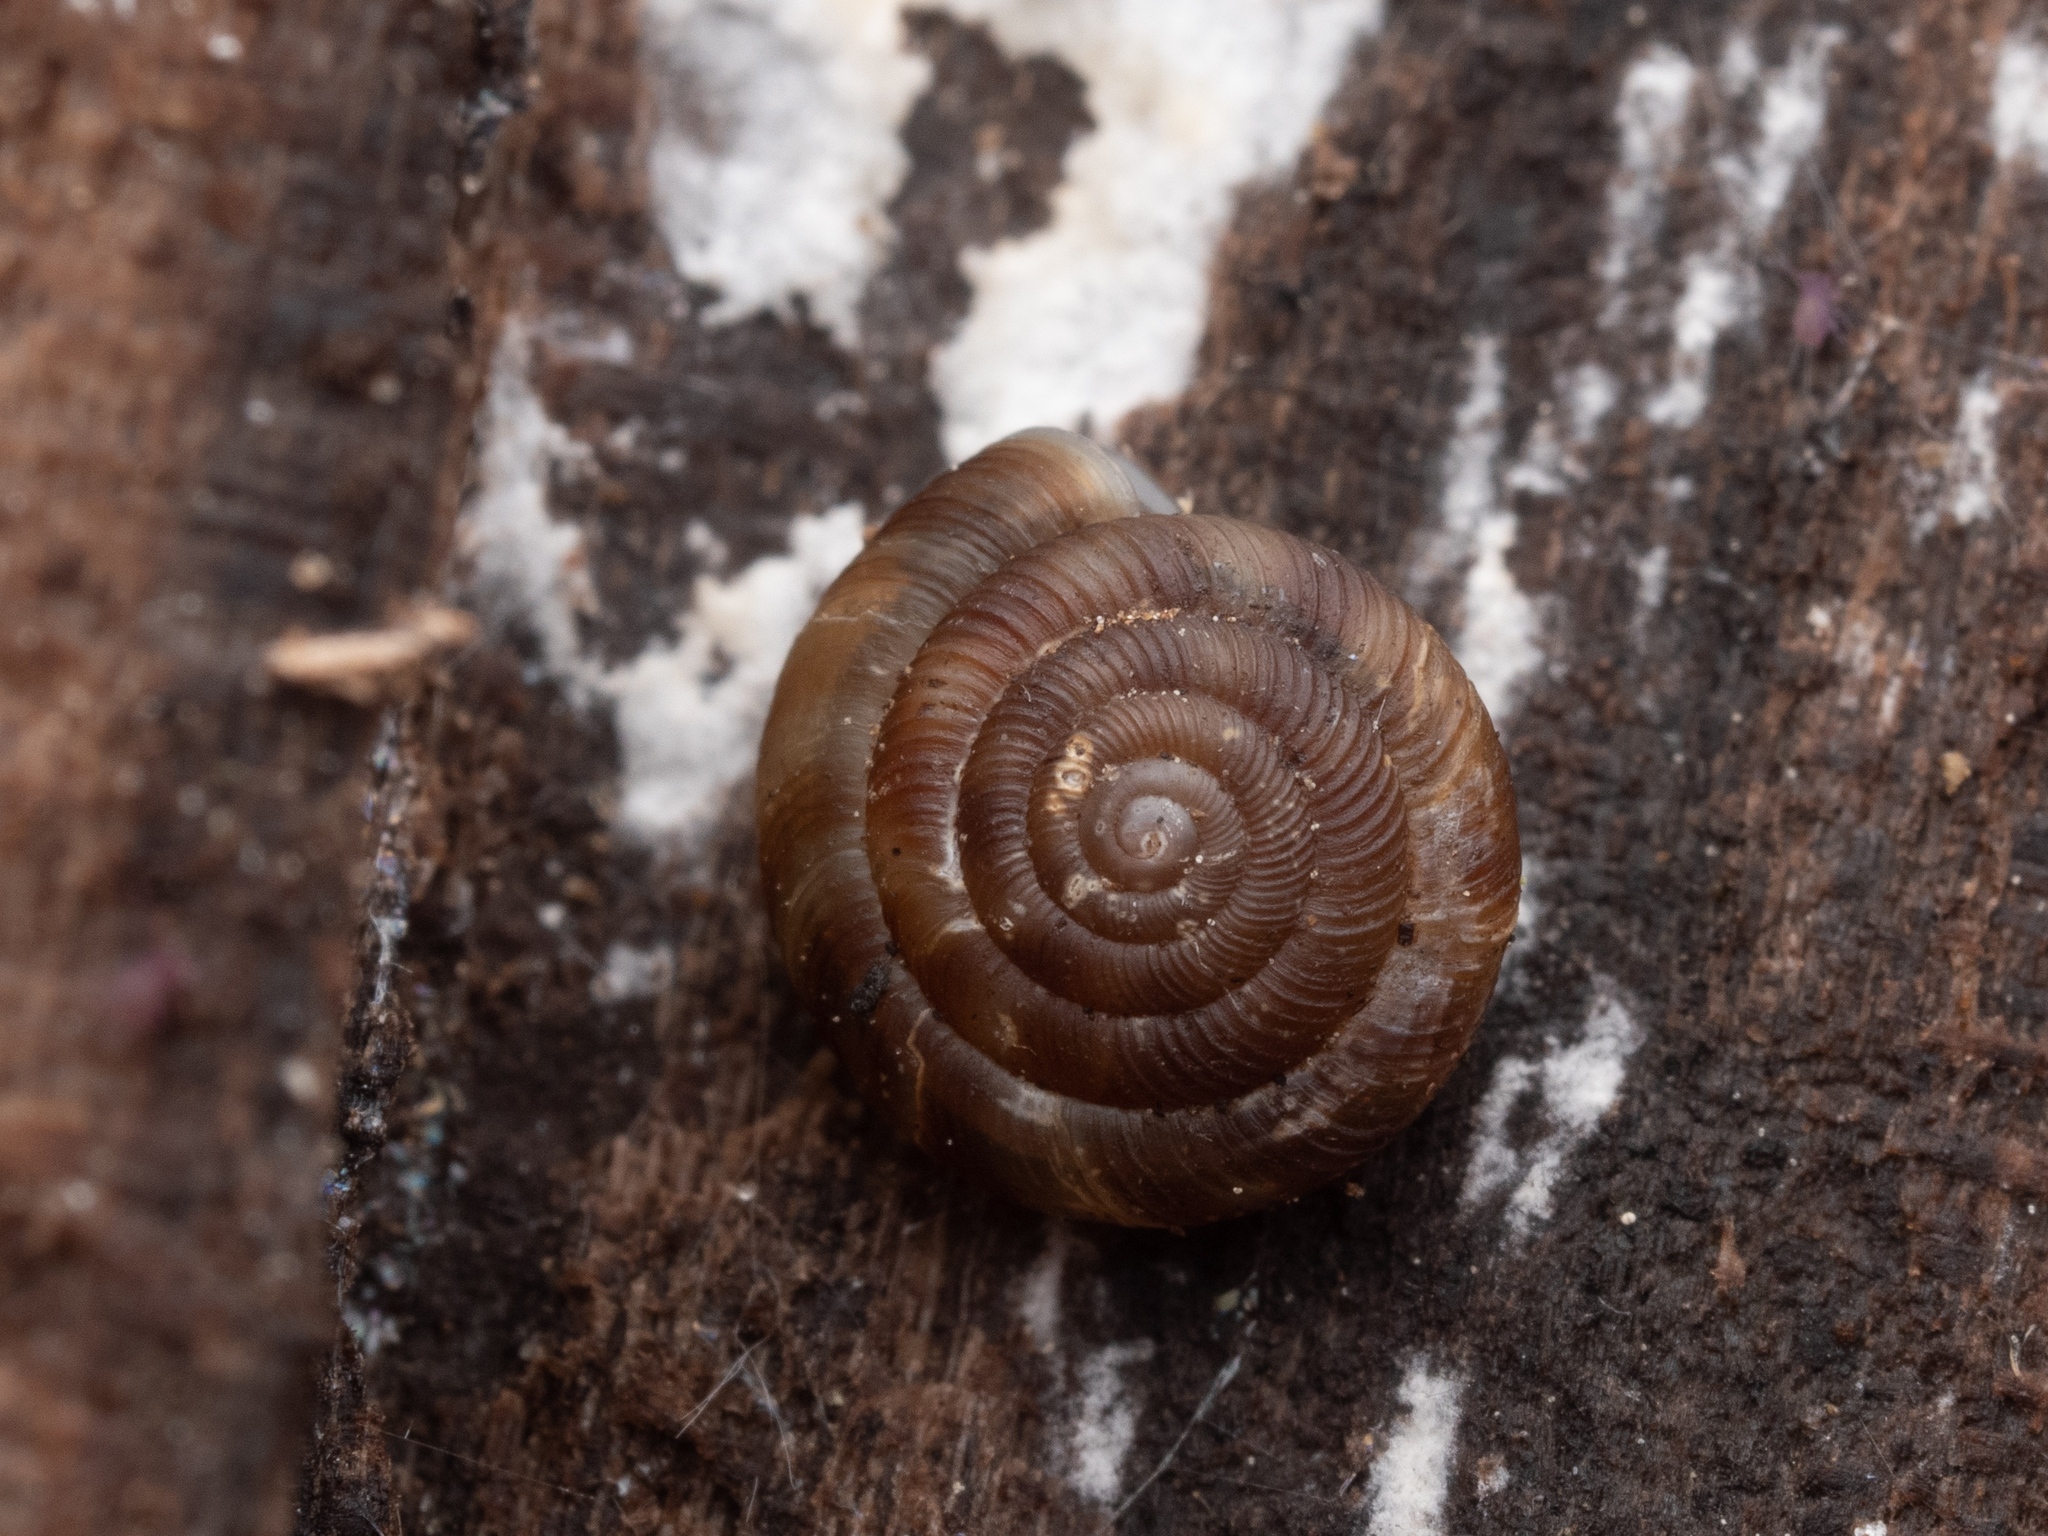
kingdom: Animalia
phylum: Mollusca
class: Gastropoda
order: Stylommatophora
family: Discidae
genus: Discus
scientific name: Discus rotundatus
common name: Rounded snail
